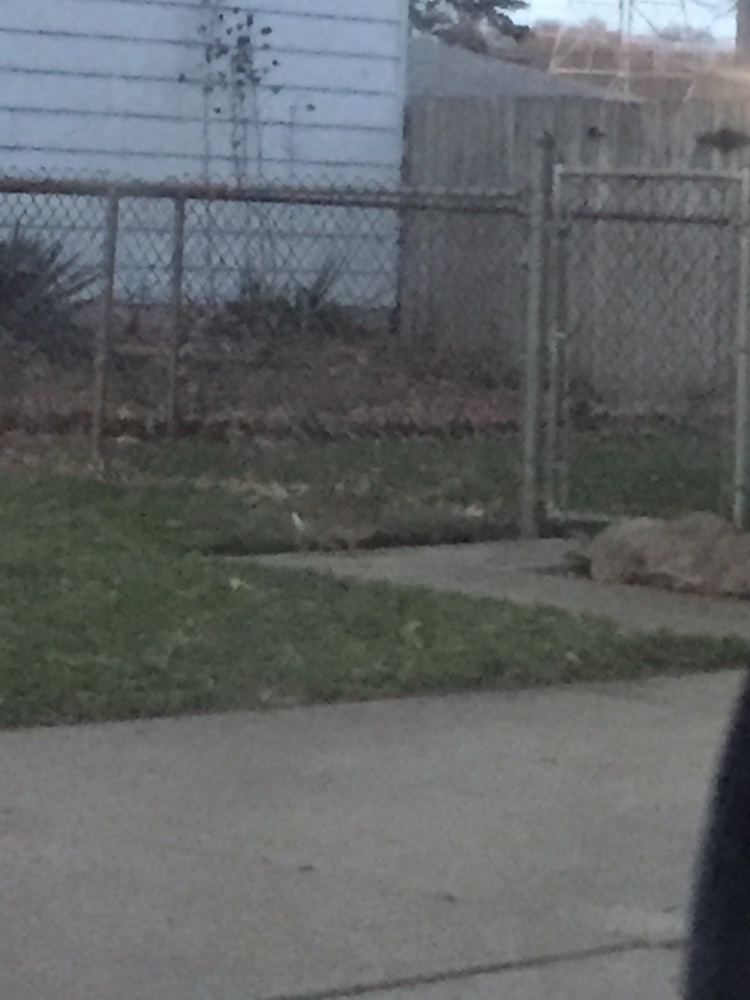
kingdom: Animalia
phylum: Chordata
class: Mammalia
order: Lagomorpha
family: Leporidae
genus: Sylvilagus
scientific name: Sylvilagus floridanus
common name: Eastern cottontail
